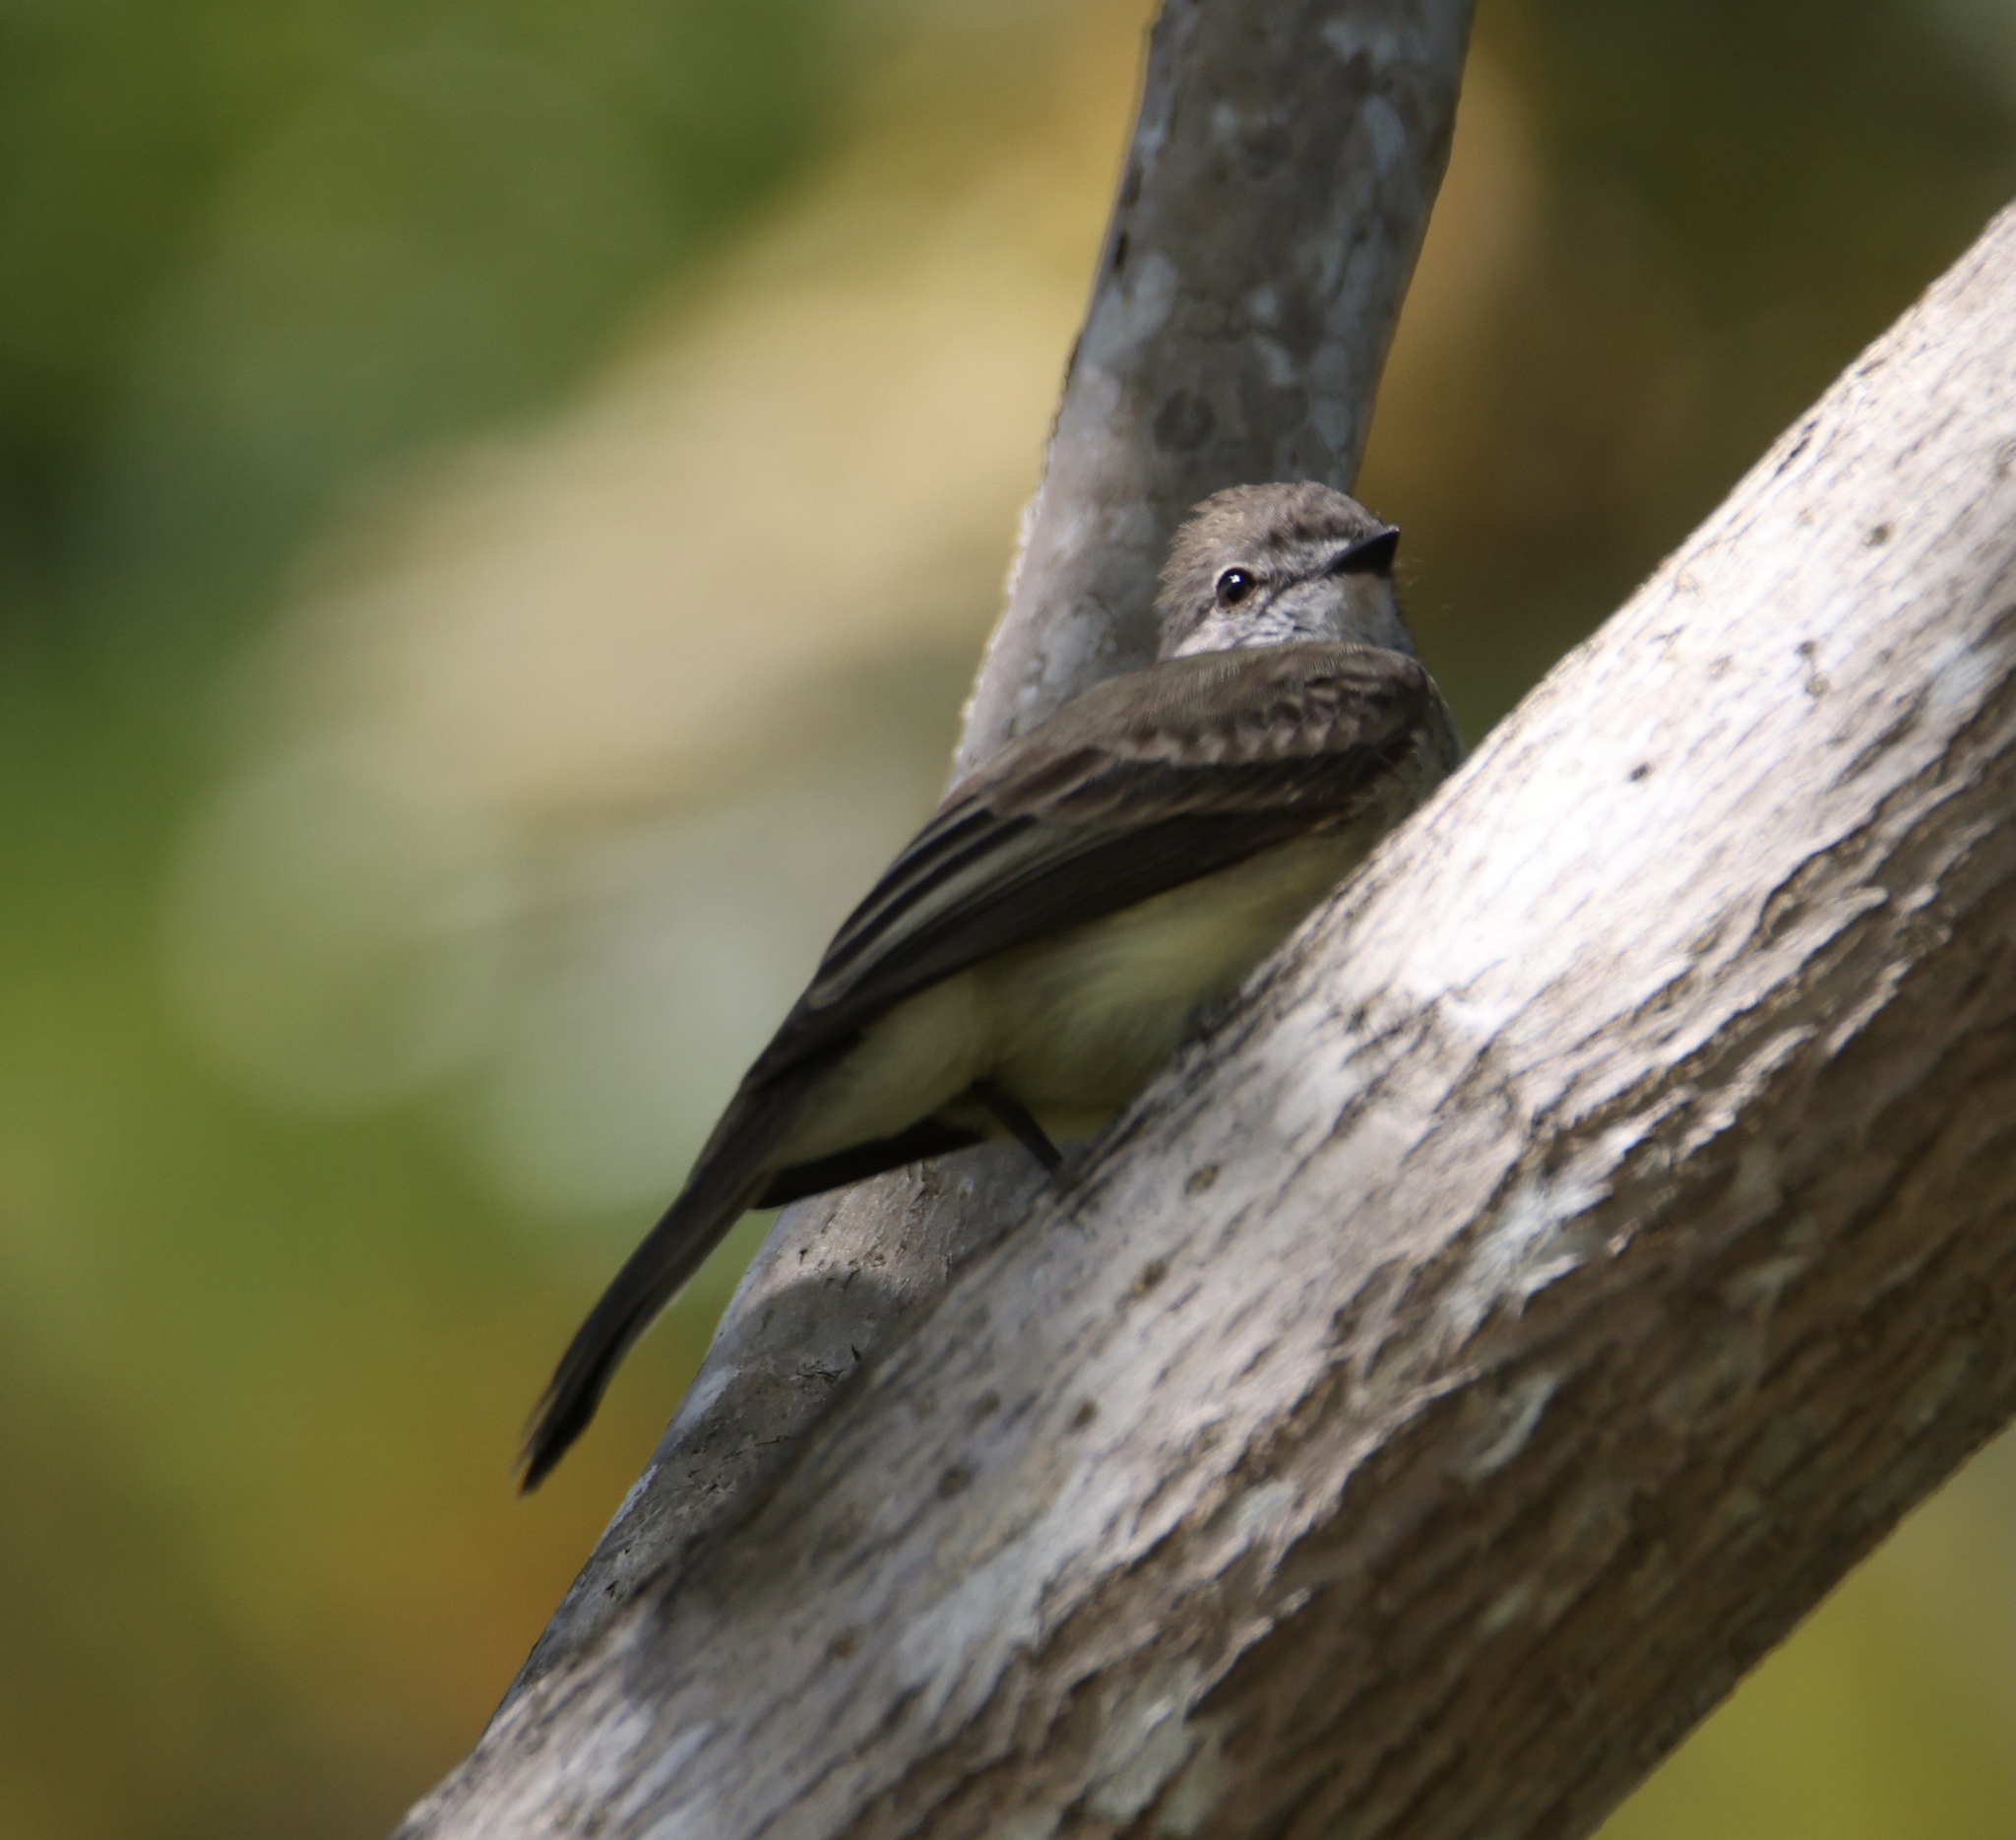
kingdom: Animalia
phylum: Chordata
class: Aves
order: Passeriformes
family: Tyrannidae
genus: Sublegatus
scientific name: Sublegatus arenarum
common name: Northern scrub-flycatcher
